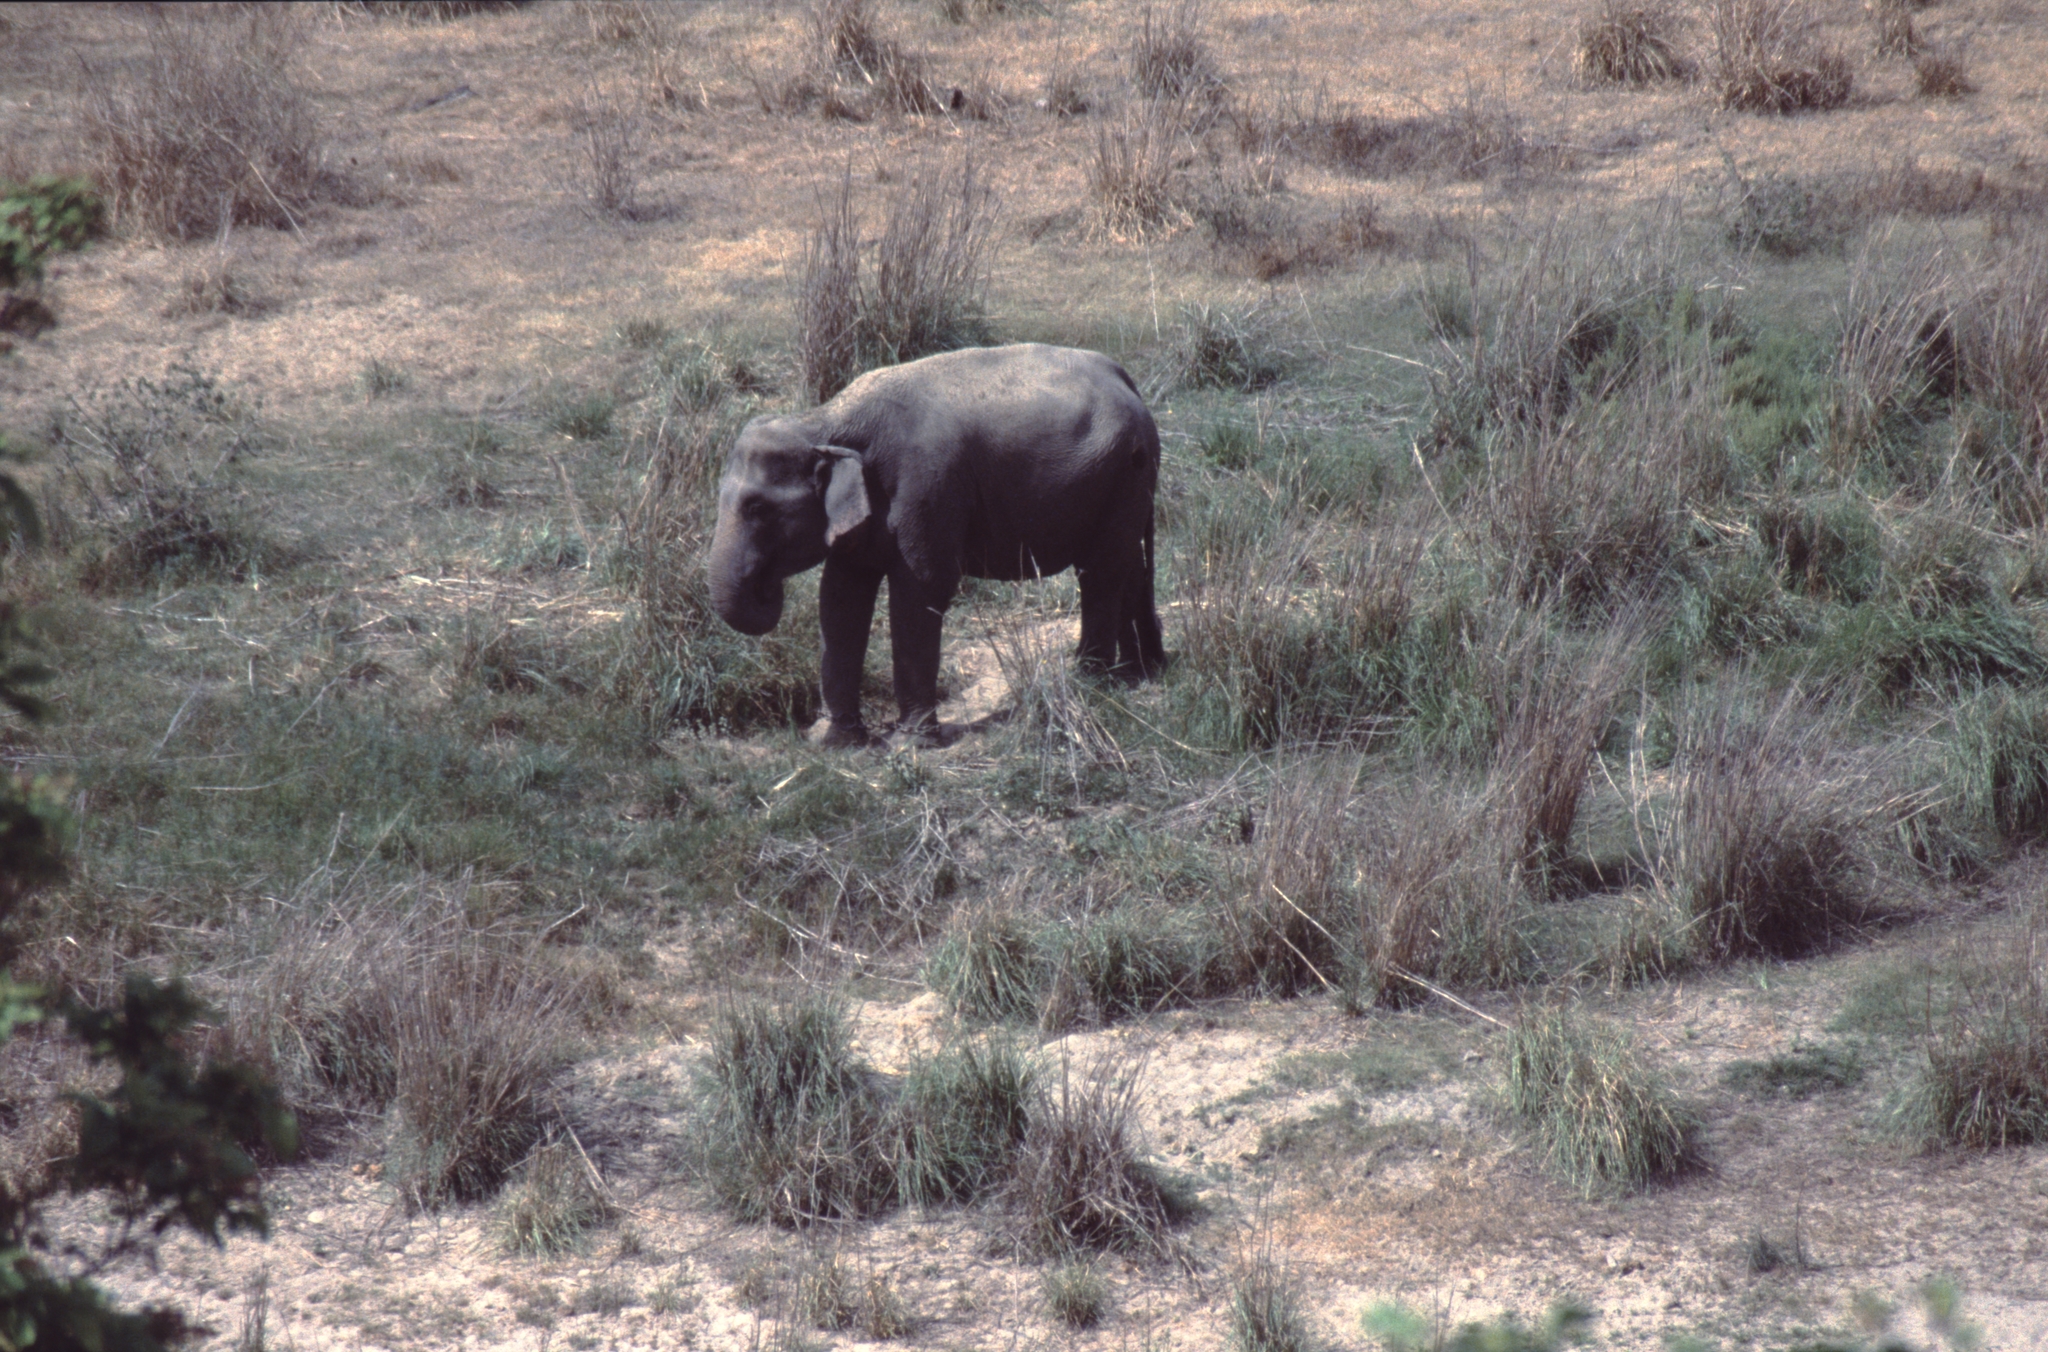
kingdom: Animalia
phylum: Chordata
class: Mammalia
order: Proboscidea
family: Elephantidae
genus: Elephas
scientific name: Elephas maximus
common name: Asian elephant
